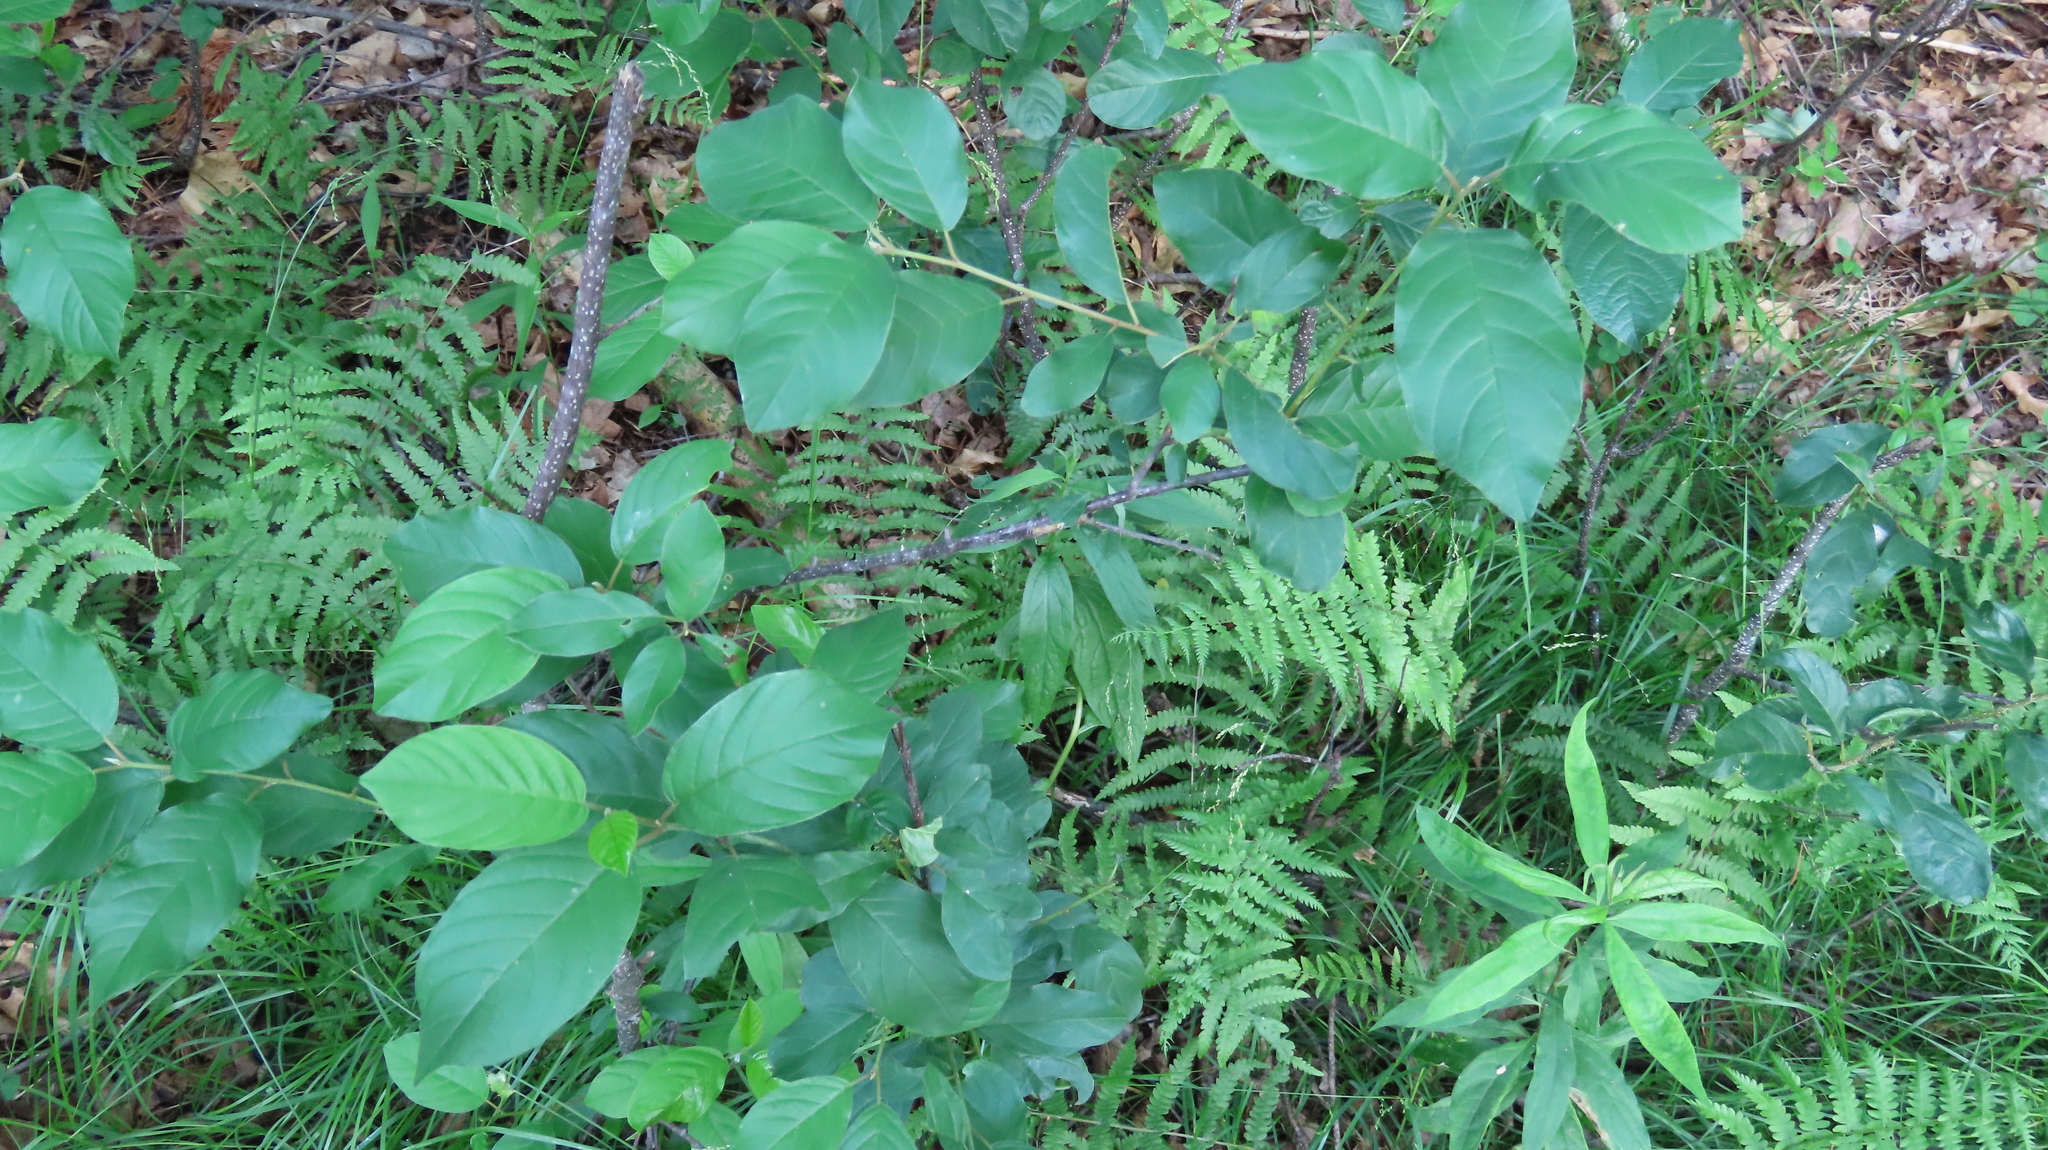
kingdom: Plantae
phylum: Tracheophyta
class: Magnoliopsida
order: Rosales
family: Rhamnaceae
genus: Frangula
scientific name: Frangula alnus
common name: Alder buckthorn
